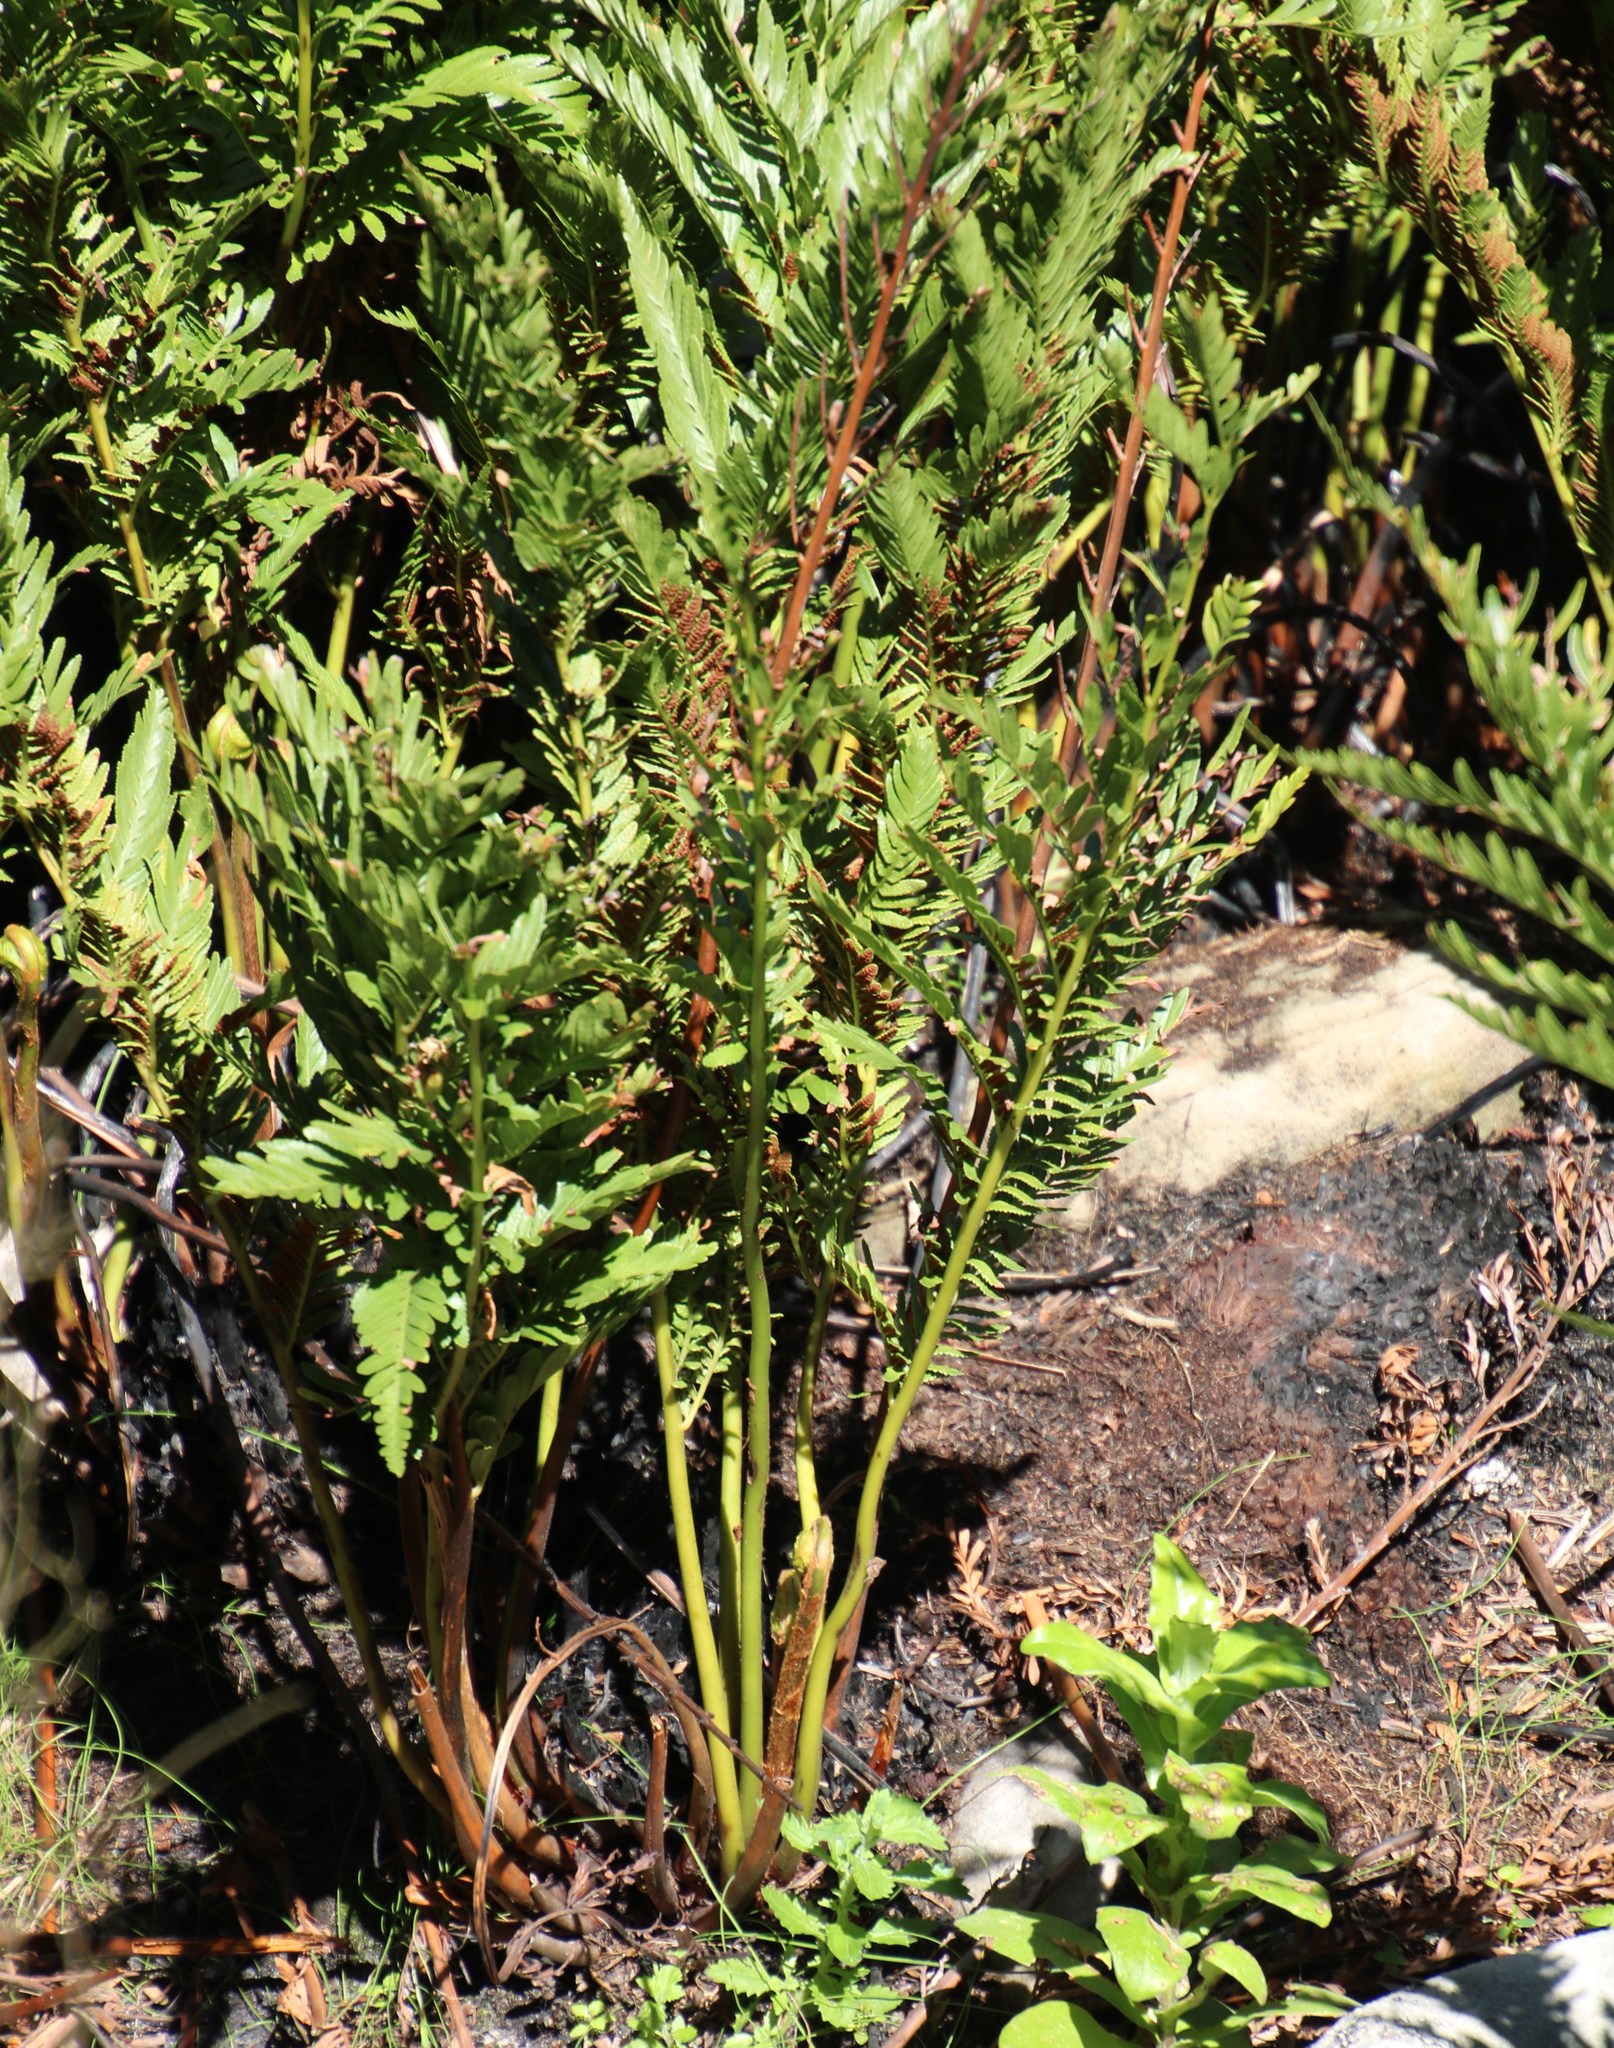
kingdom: Plantae
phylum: Tracheophyta
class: Polypodiopsida
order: Osmundales
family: Osmundaceae
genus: Todea
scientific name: Todea barbara
